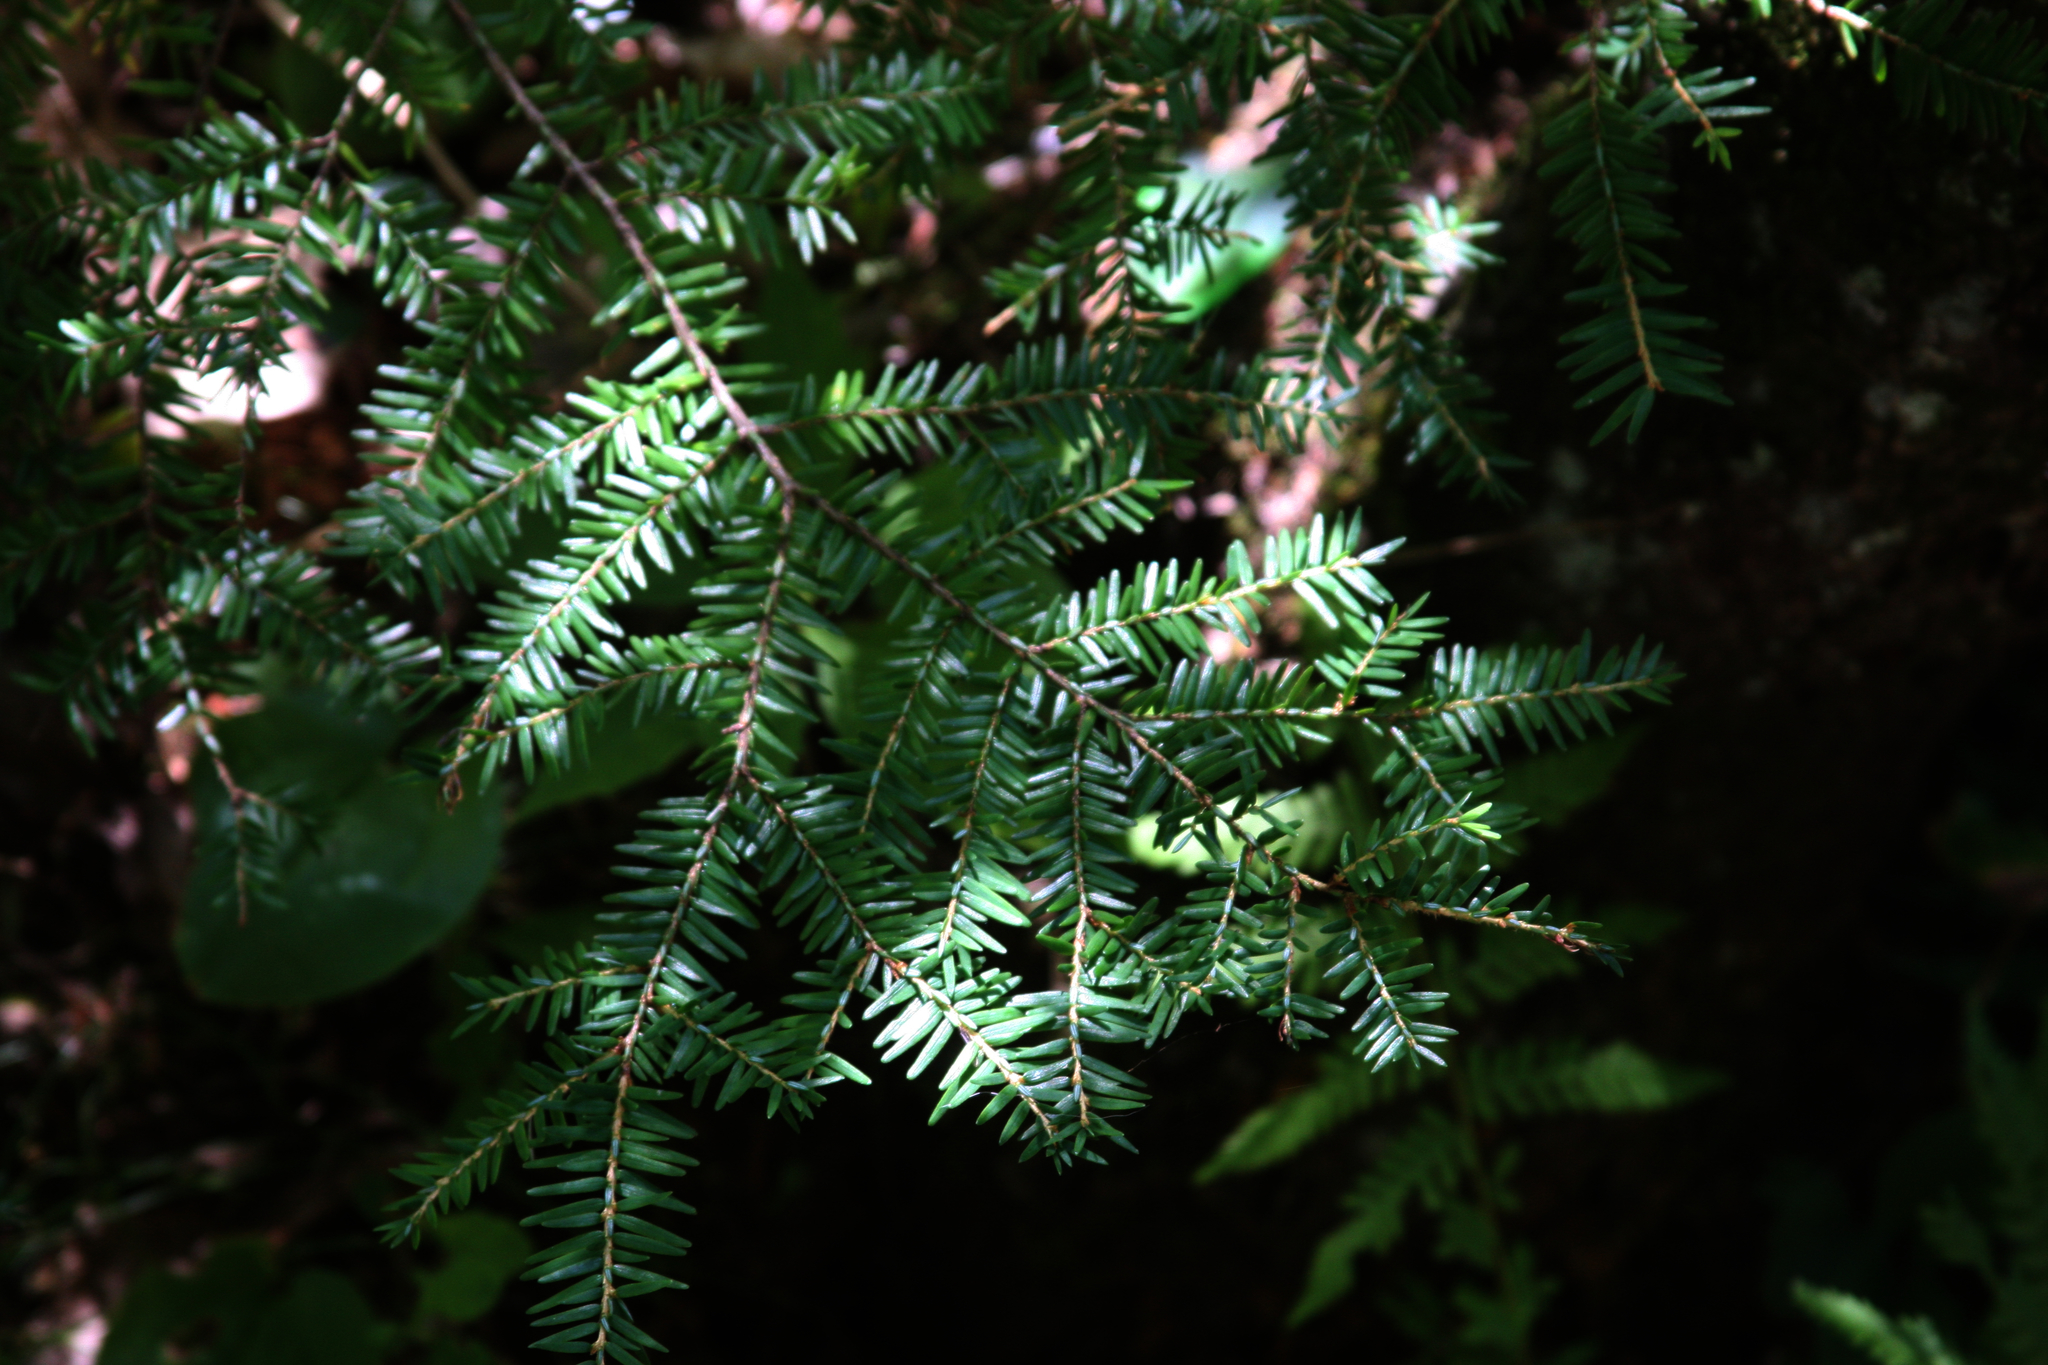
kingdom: Plantae
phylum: Tracheophyta
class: Pinopsida
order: Pinales
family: Pinaceae
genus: Tsuga
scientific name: Tsuga canadensis
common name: Eastern hemlock
